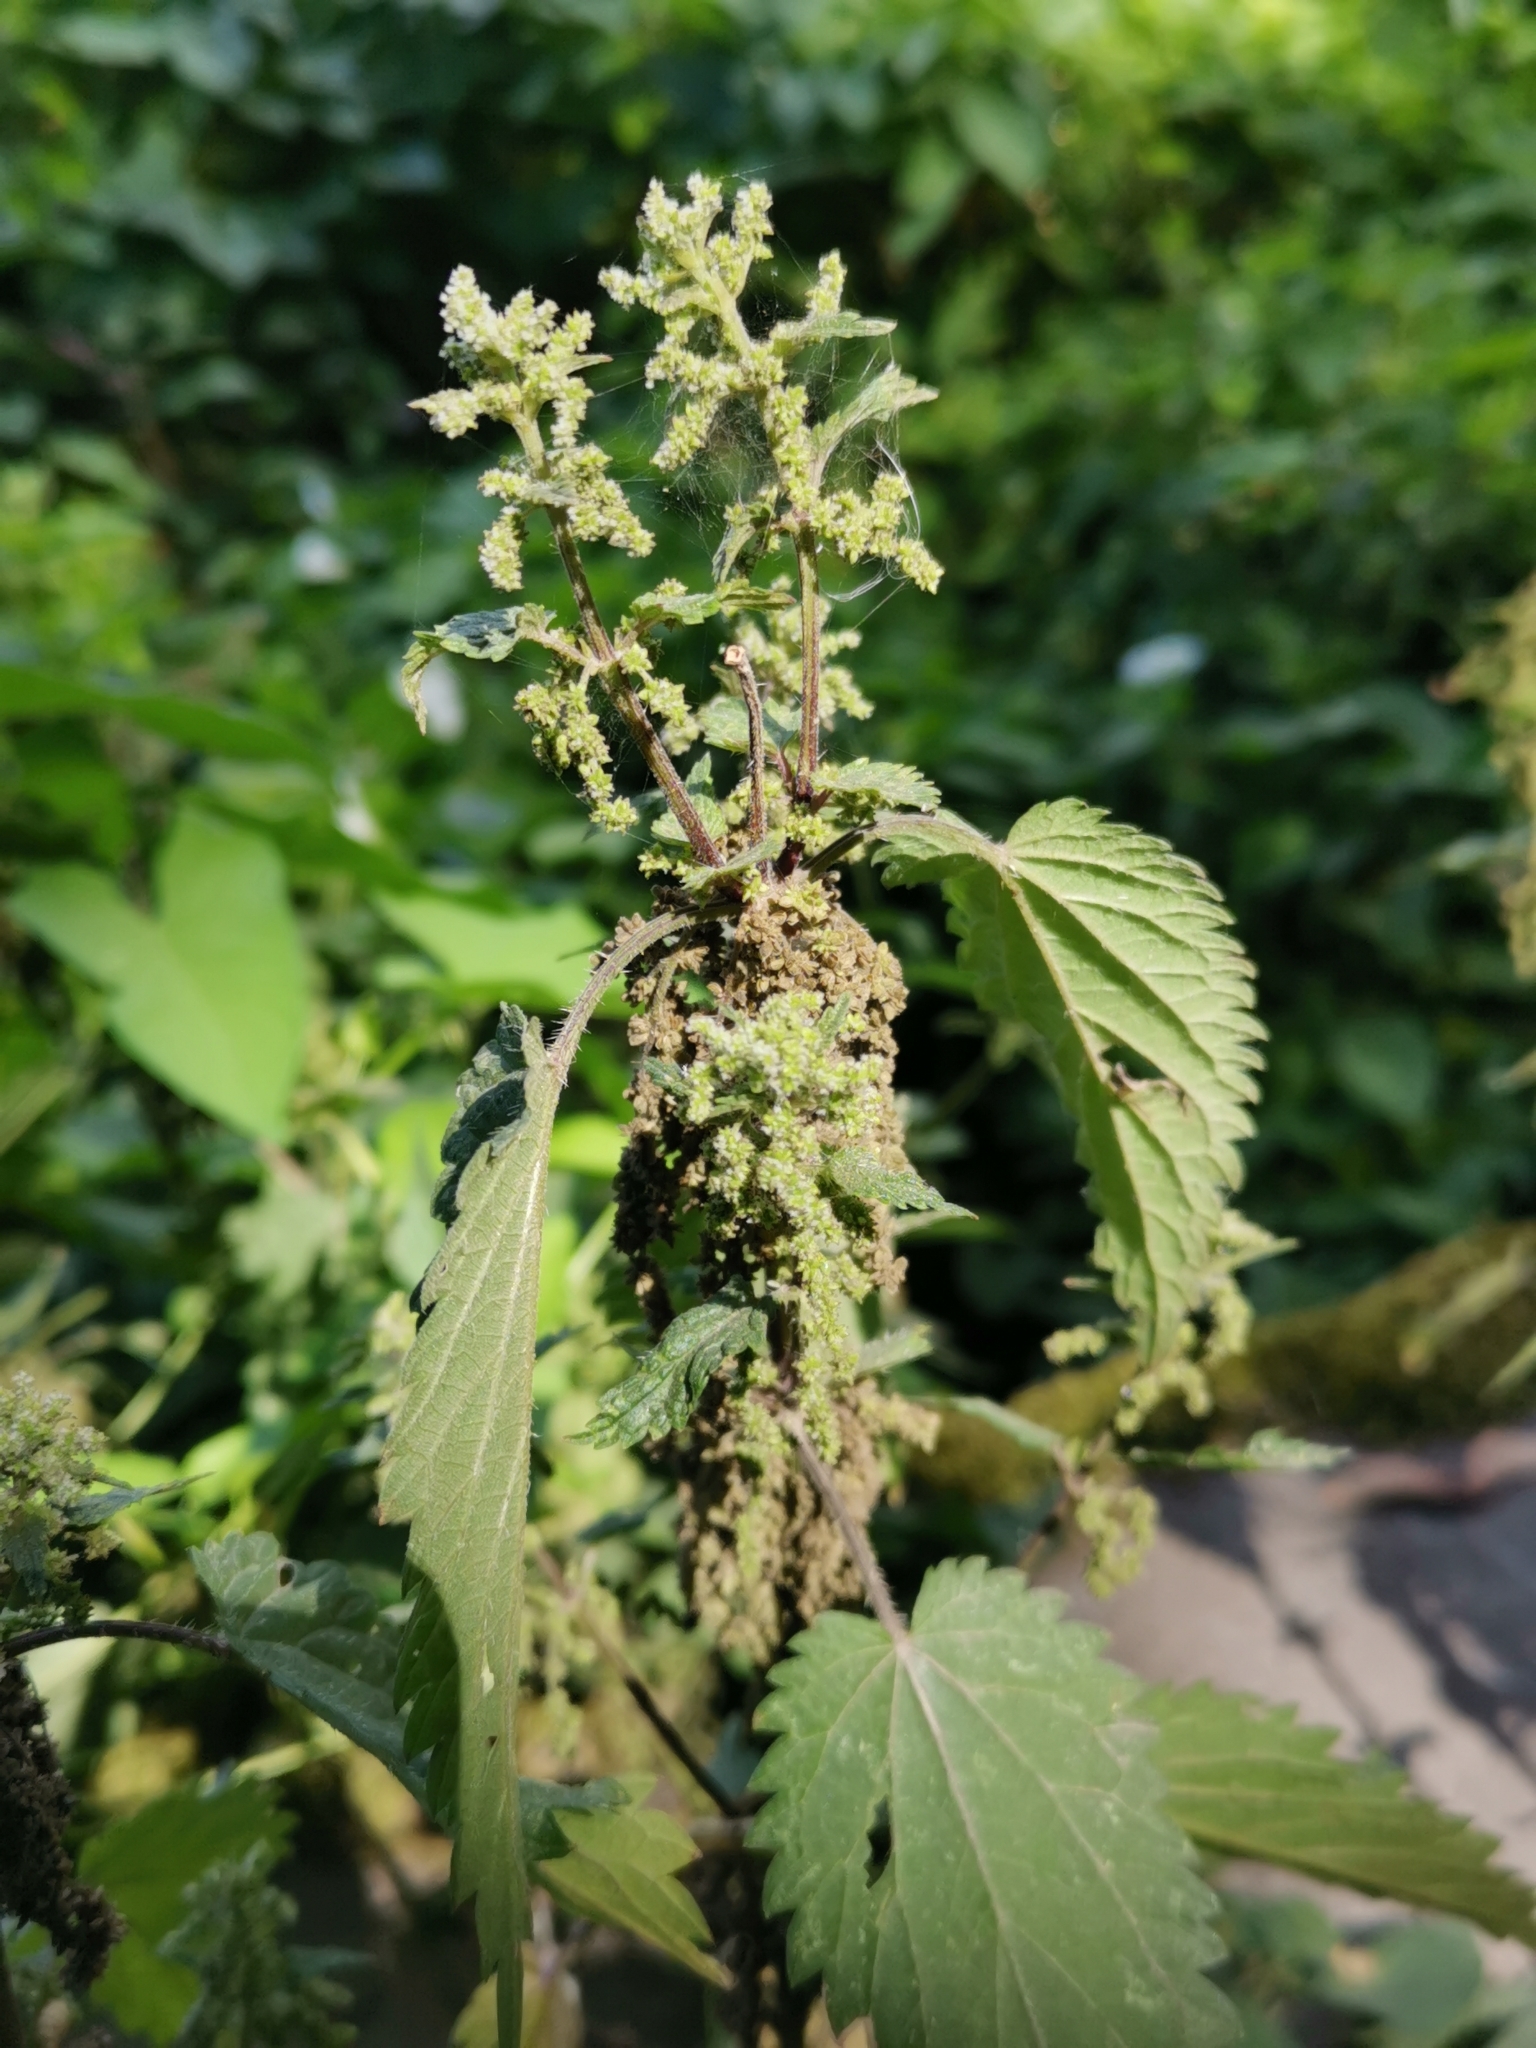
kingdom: Plantae
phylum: Tracheophyta
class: Magnoliopsida
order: Rosales
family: Urticaceae
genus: Urtica
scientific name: Urtica dioica
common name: Common nettle
